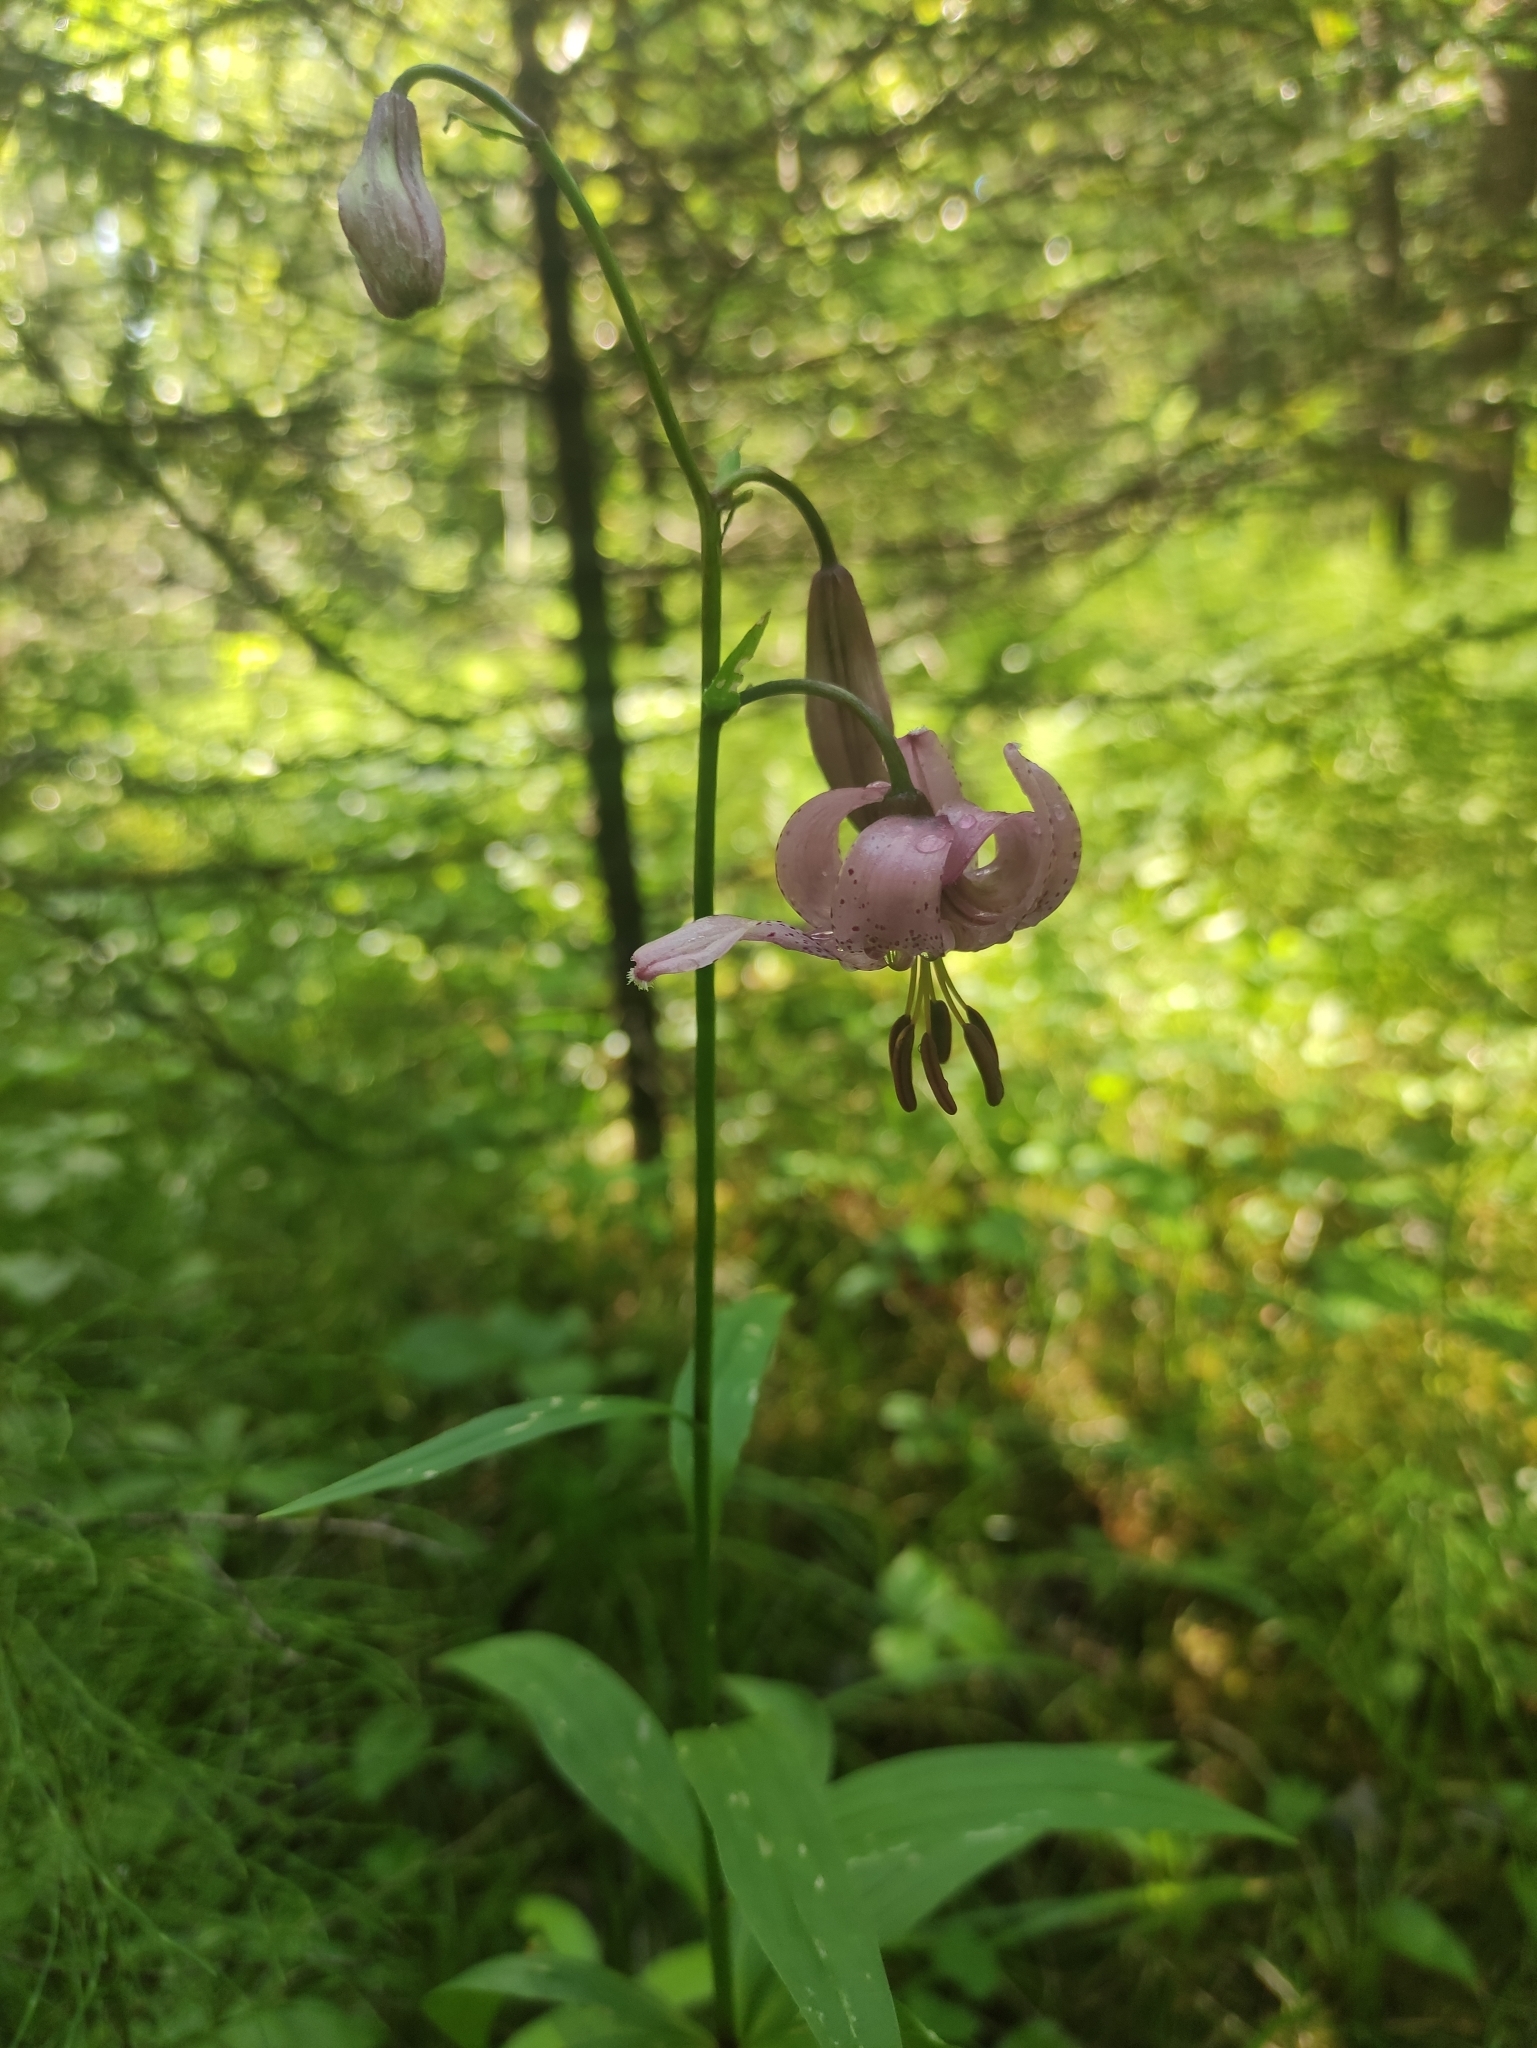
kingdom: Plantae
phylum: Tracheophyta
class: Liliopsida
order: Liliales
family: Liliaceae
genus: Lilium
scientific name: Lilium martagon
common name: Martagon lily
